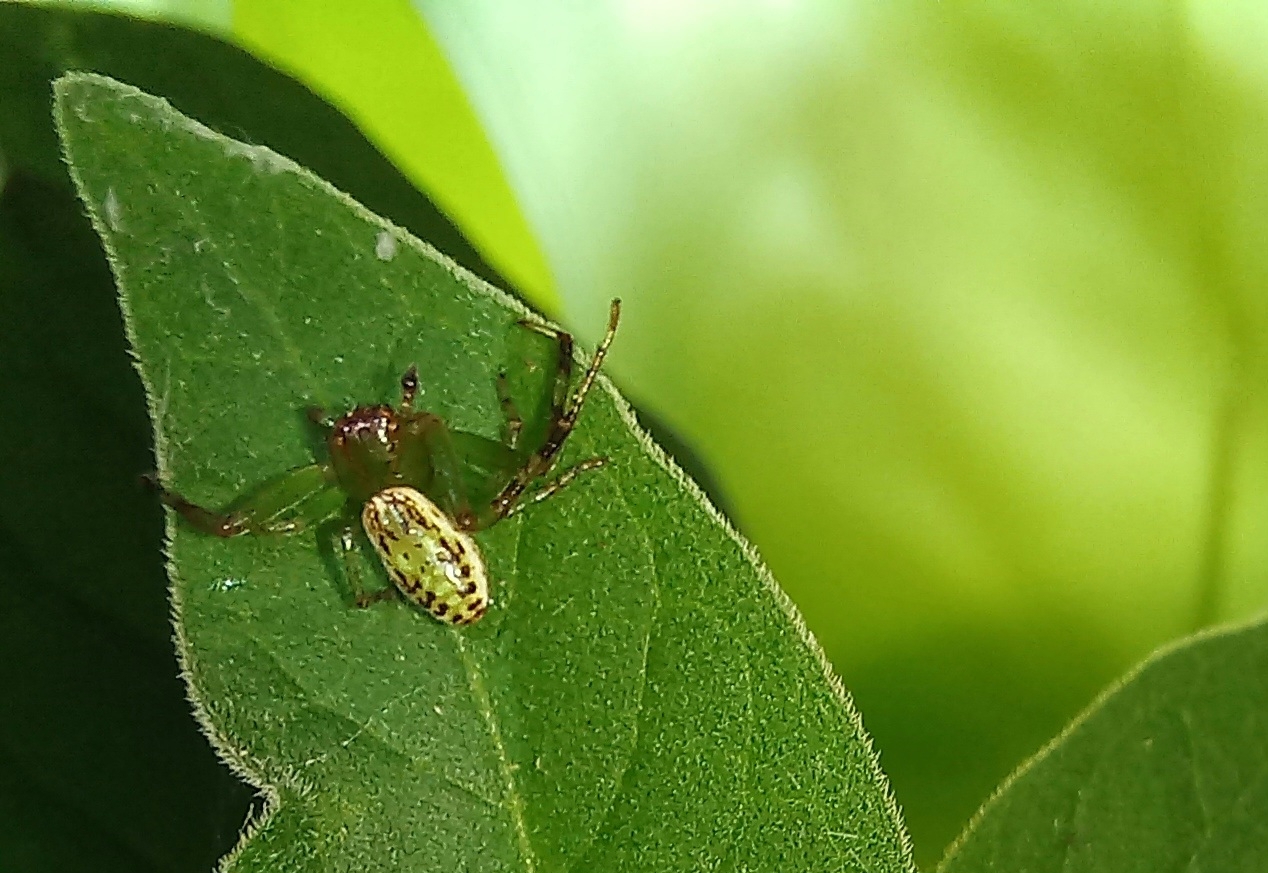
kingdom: Animalia
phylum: Arthropoda
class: Arachnida
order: Araneae
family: Thomisidae
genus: Diaea
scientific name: Diaea ambara
